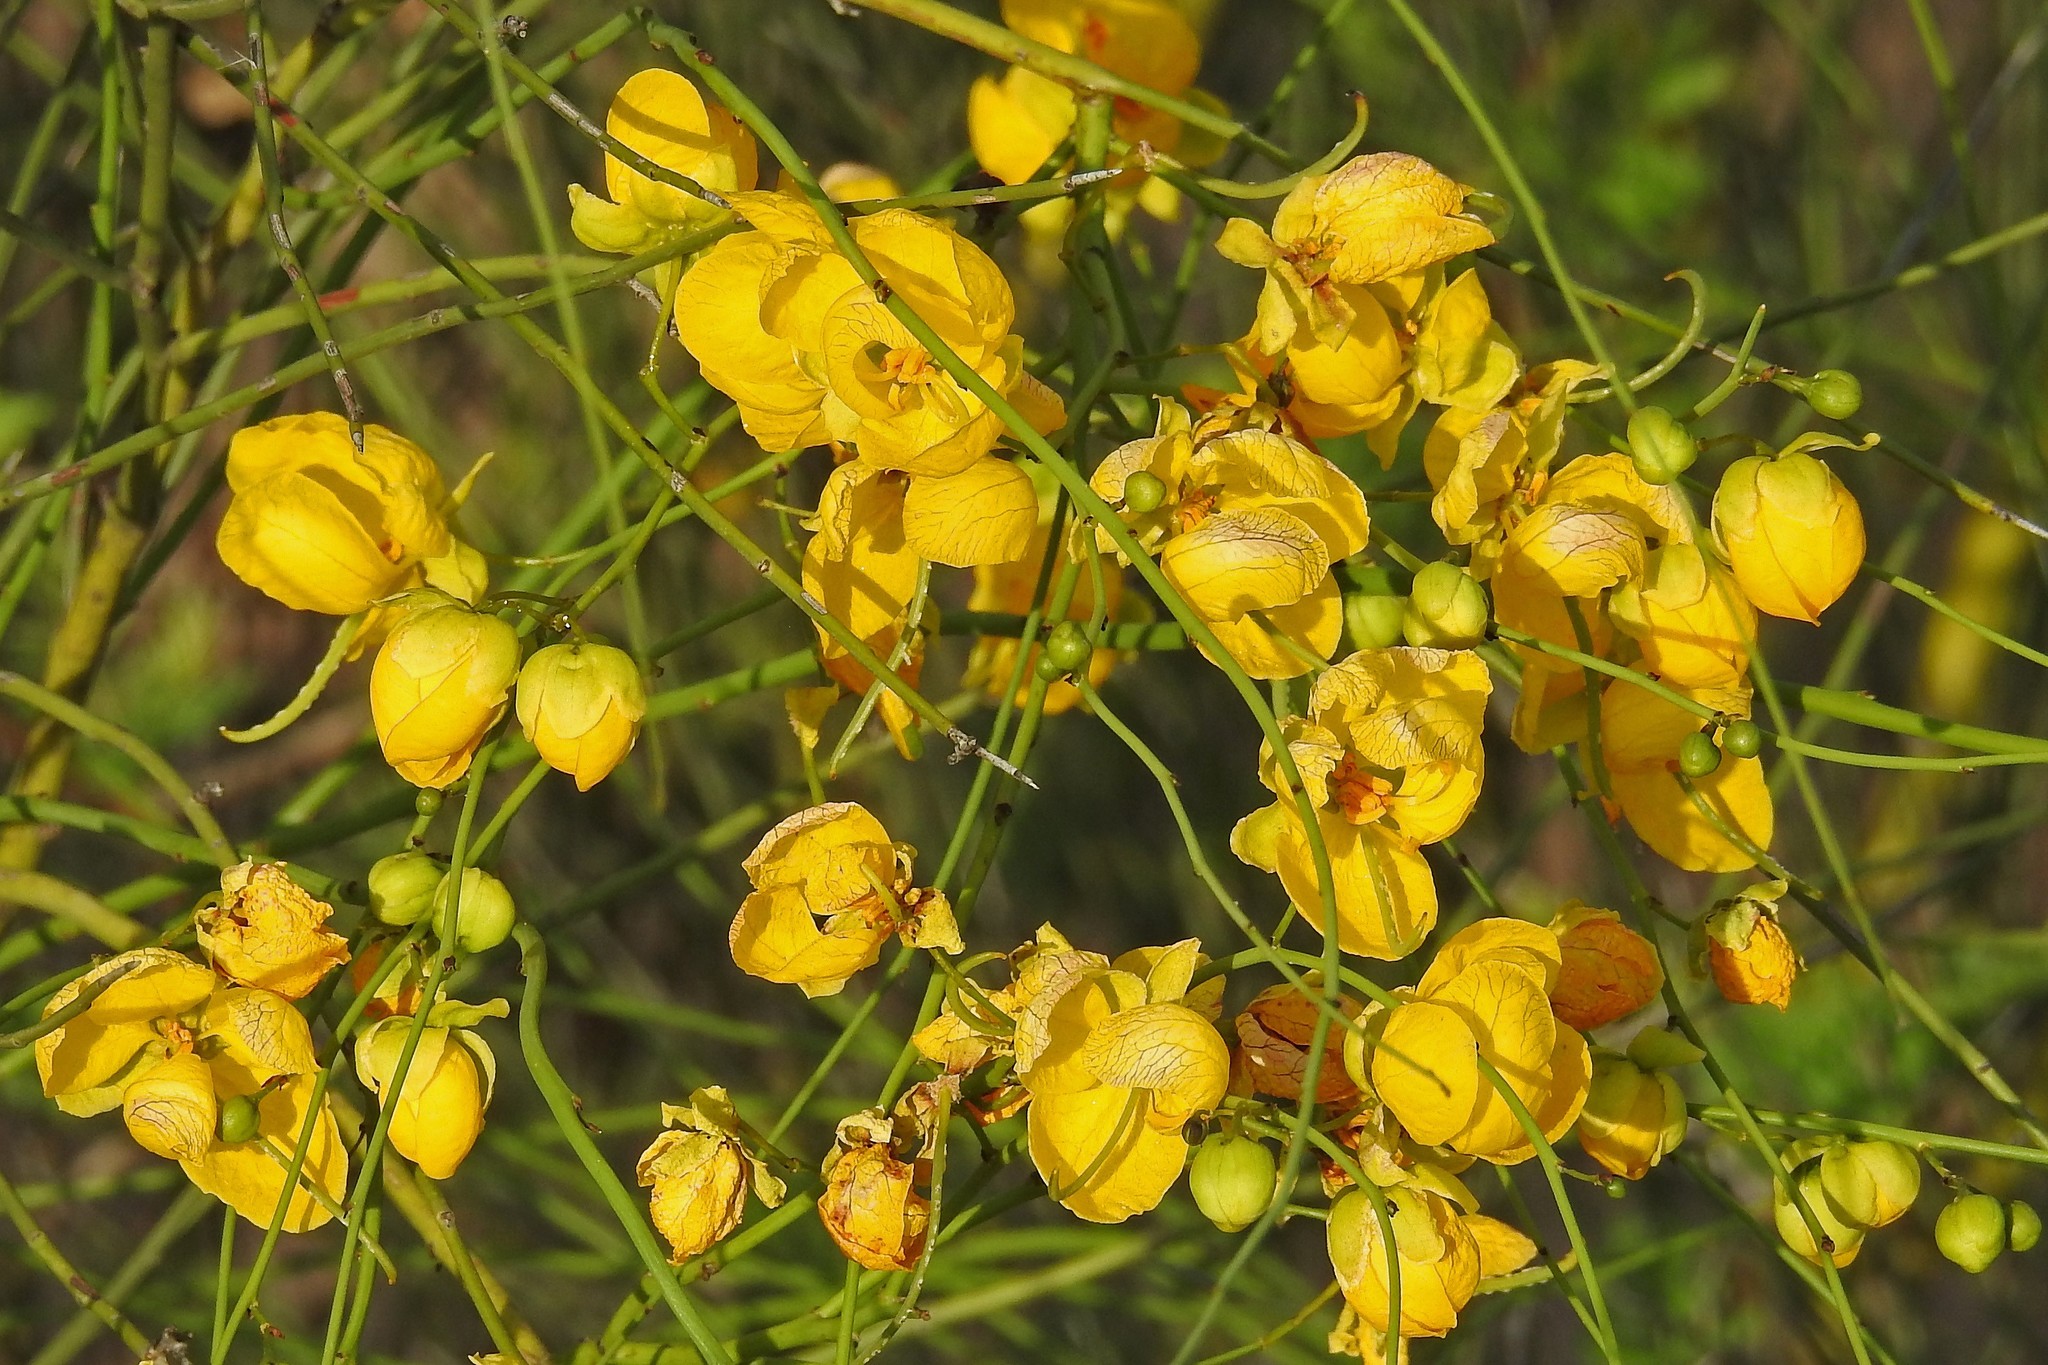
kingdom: Plantae
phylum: Tracheophyta
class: Magnoliopsida
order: Fabales
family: Fabaceae
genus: Senna
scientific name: Senna pachyrrhiza
